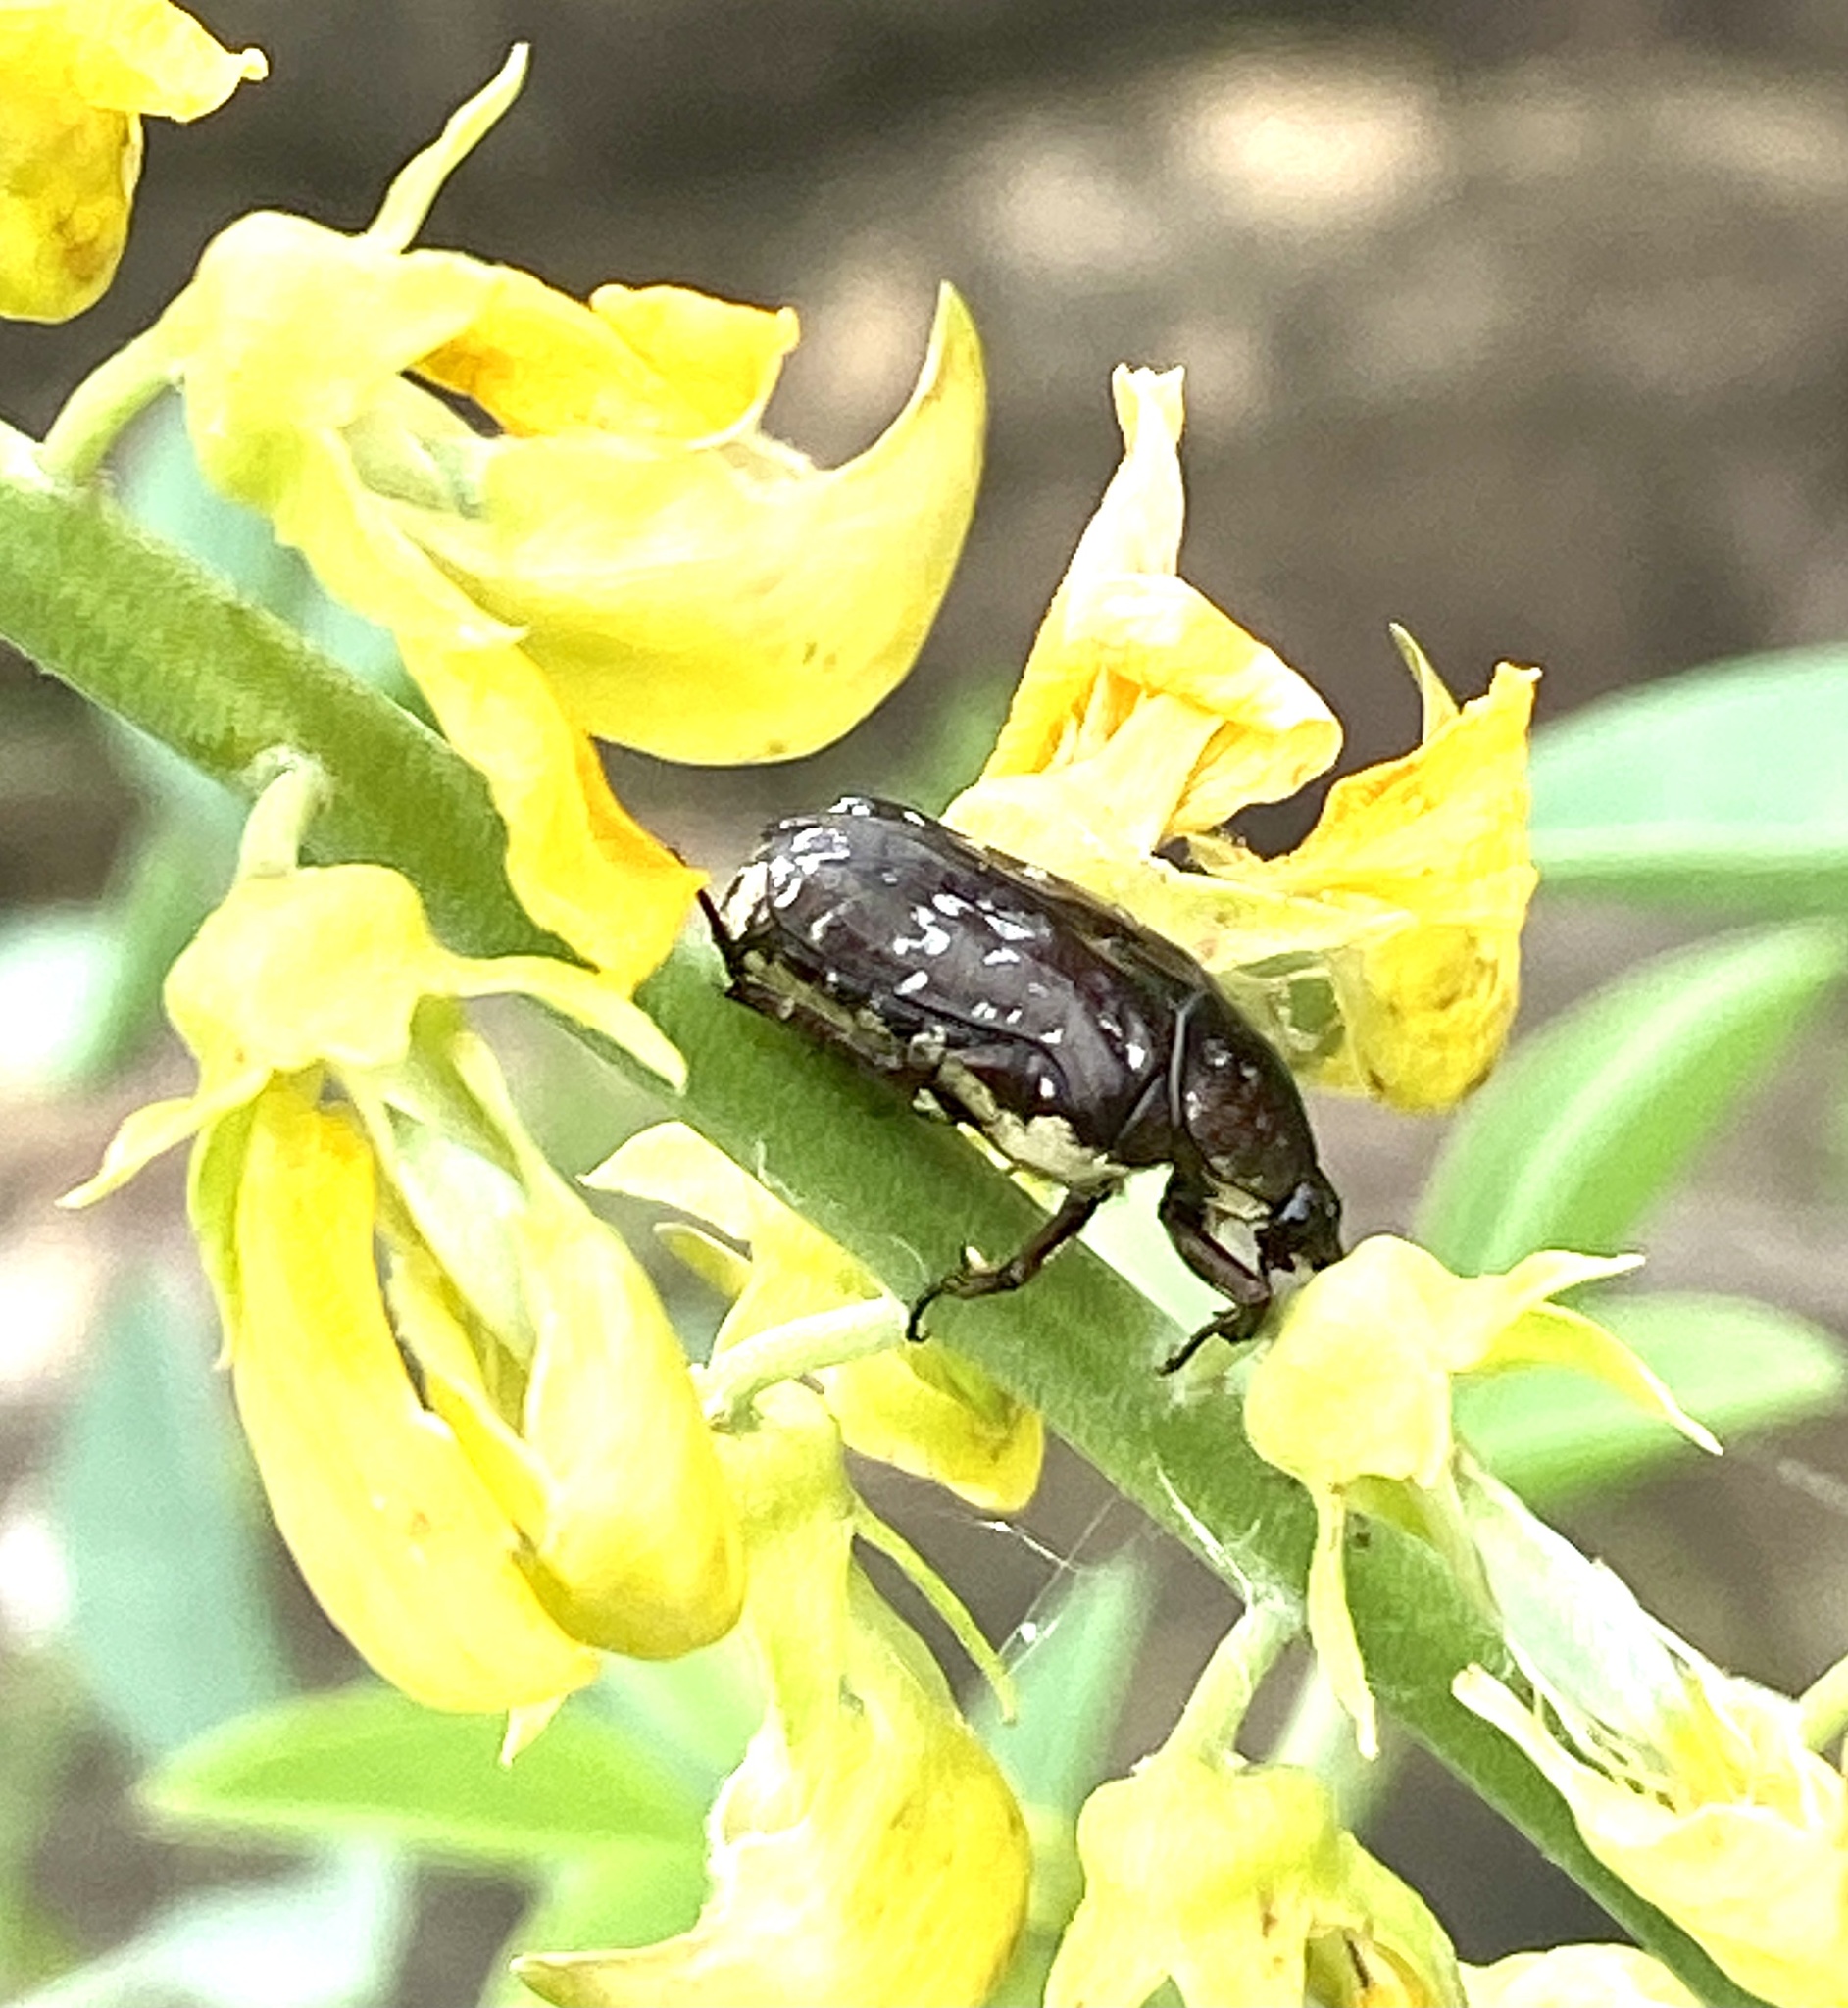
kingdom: Animalia
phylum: Arthropoda
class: Insecta
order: Coleoptera
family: Scarabaeidae
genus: Xeloma
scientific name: Xeloma leprosa
